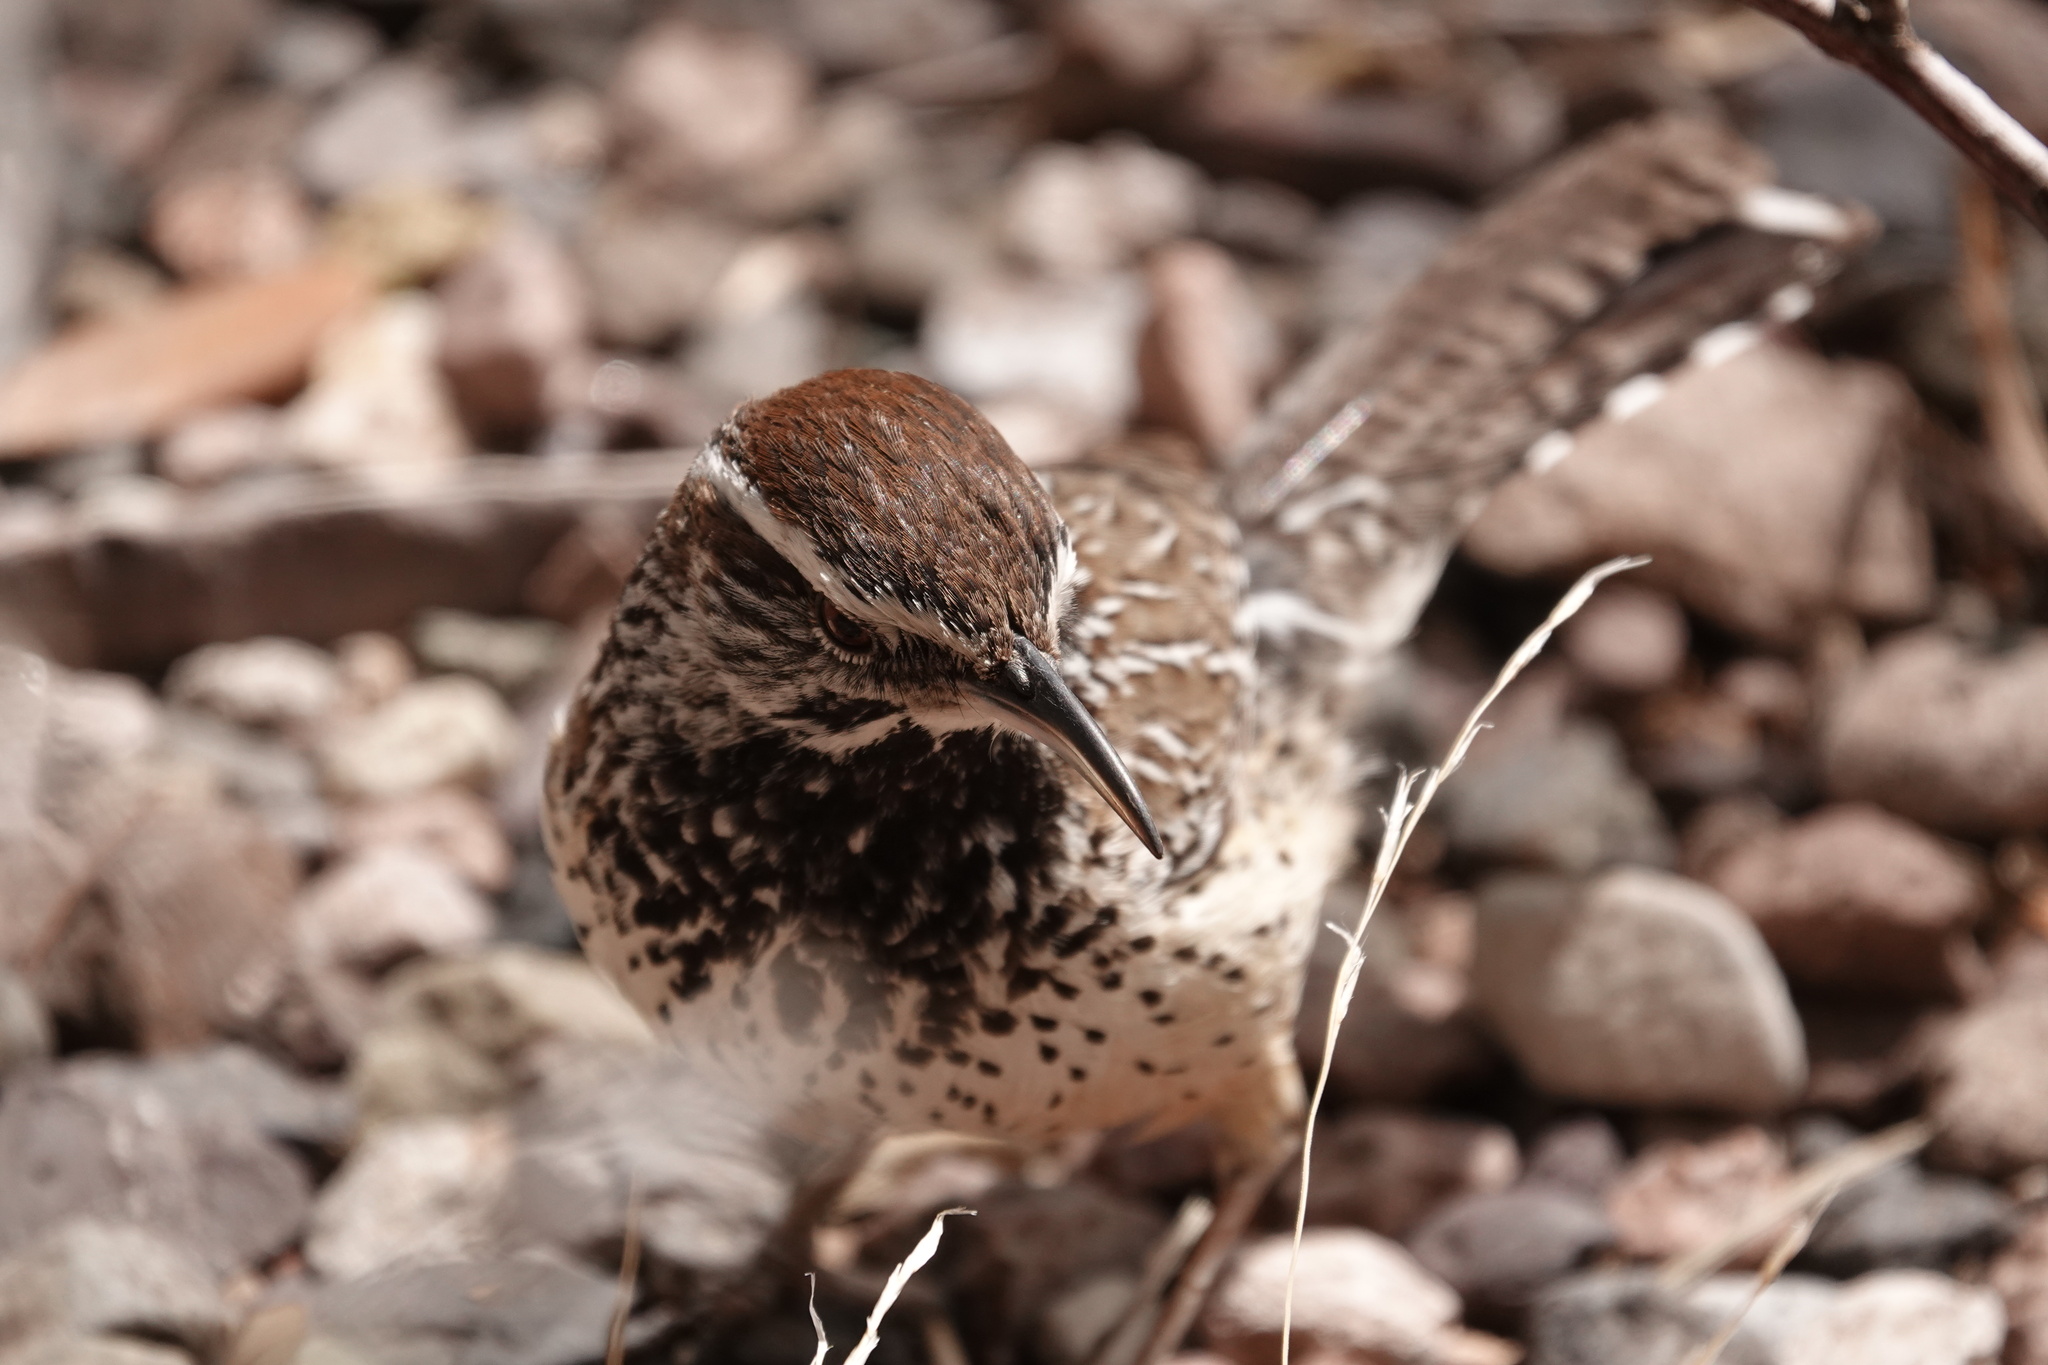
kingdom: Animalia
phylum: Chordata
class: Aves
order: Passeriformes
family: Troglodytidae
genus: Campylorhynchus
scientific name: Campylorhynchus brunneicapillus
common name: Cactus wren
